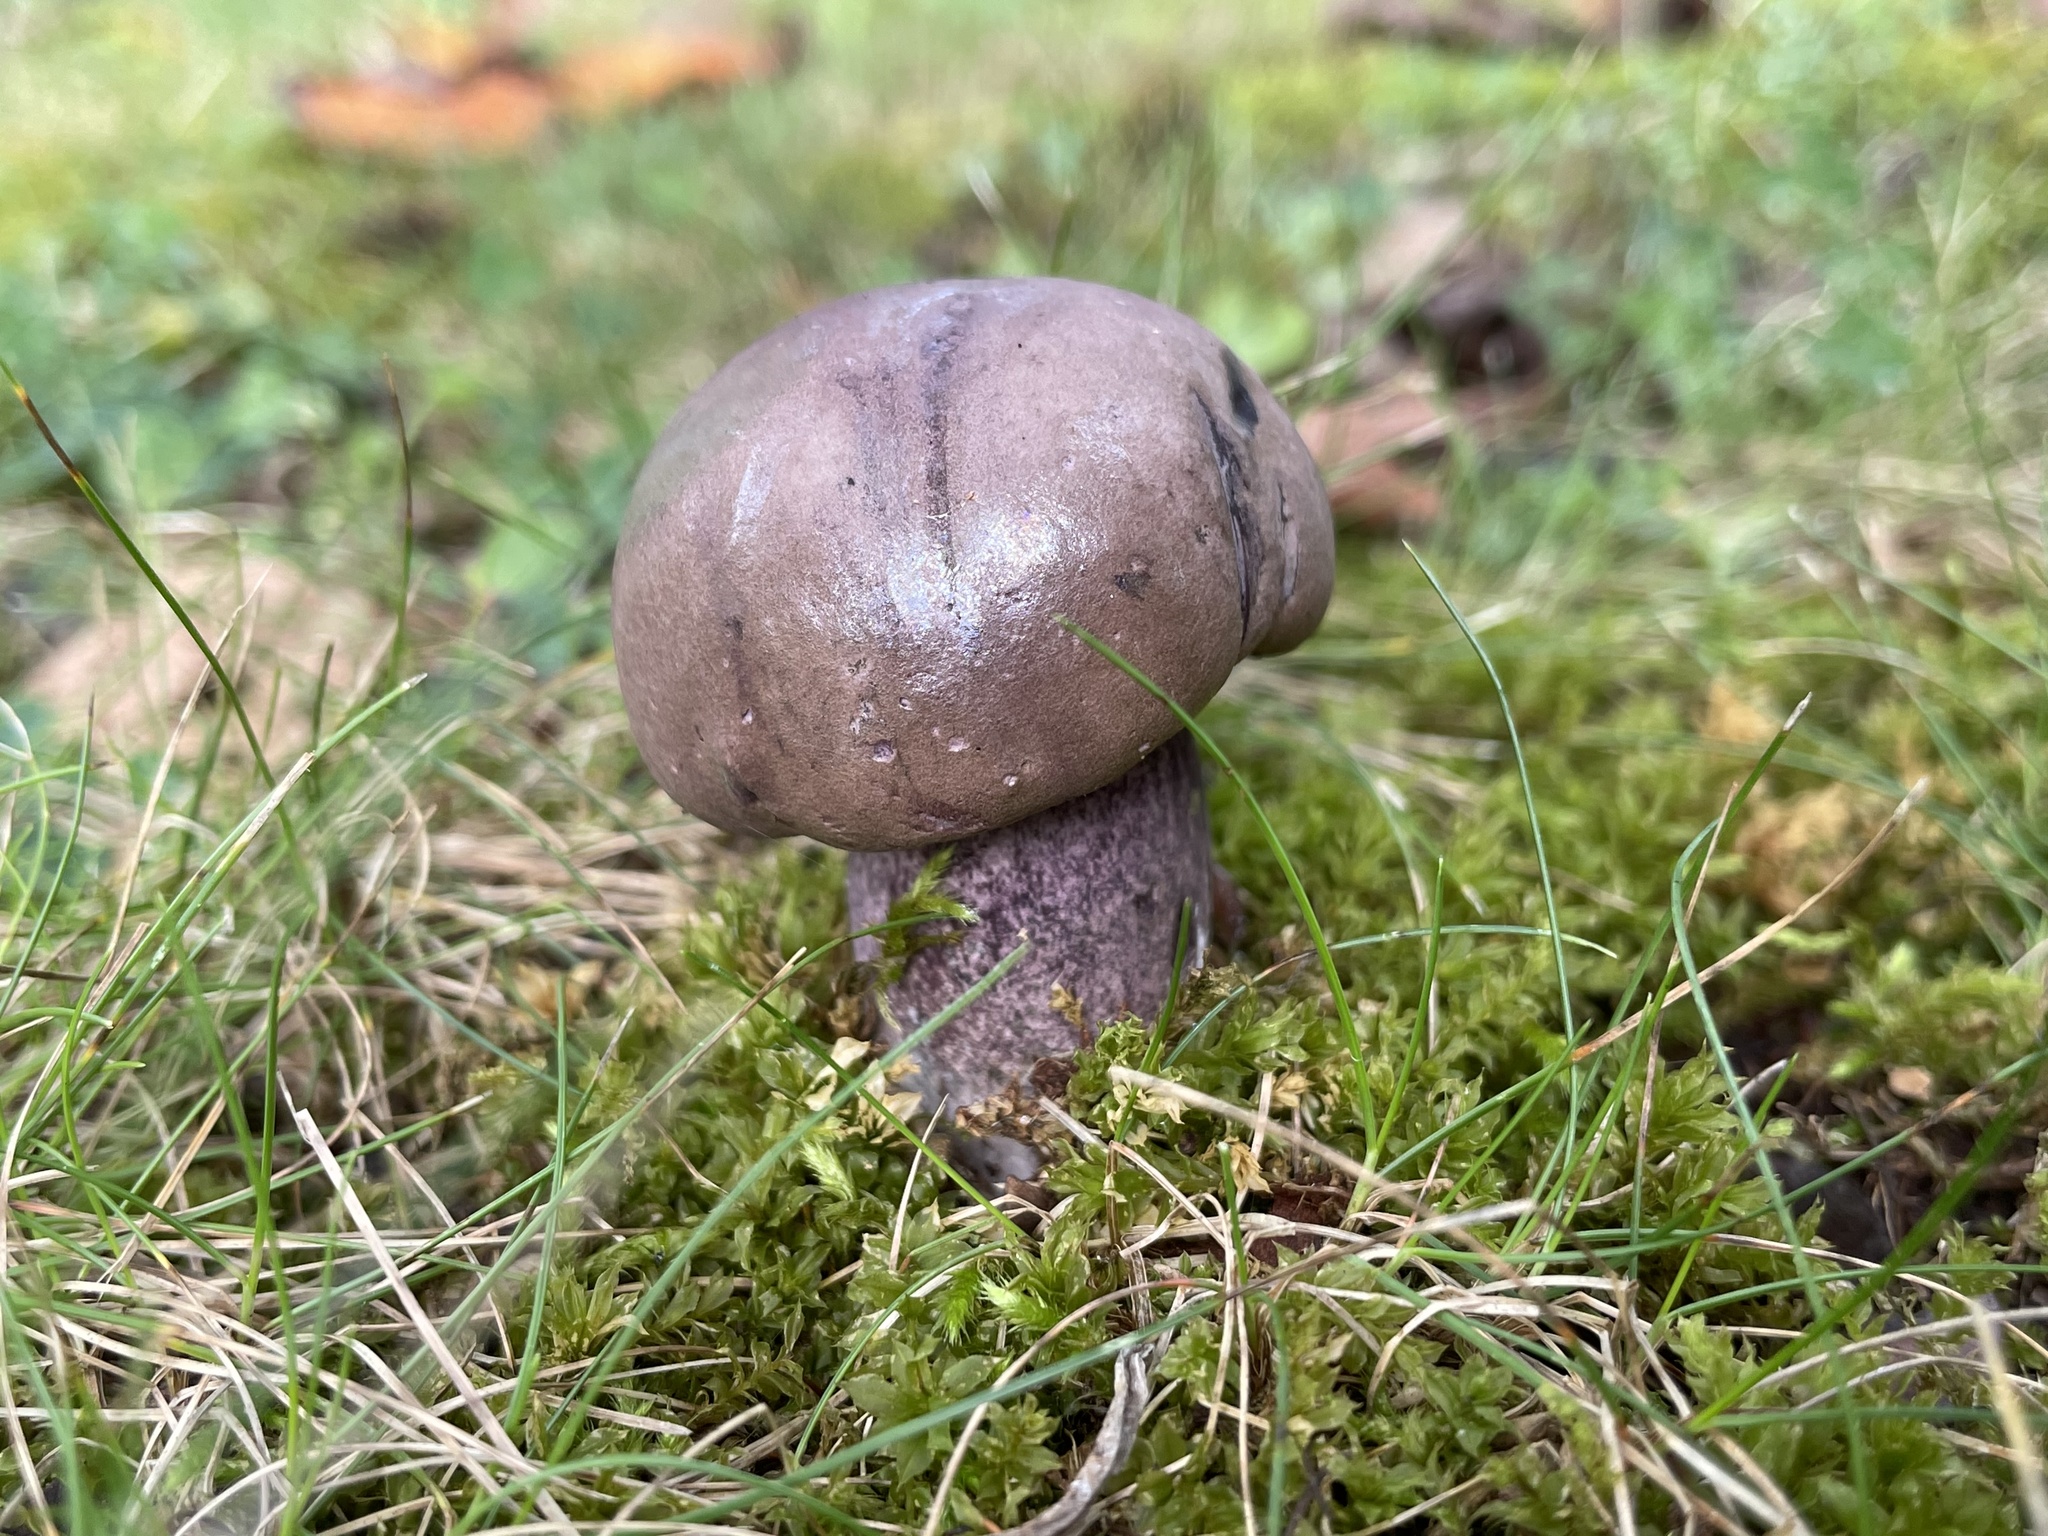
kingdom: Fungi
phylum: Basidiomycota
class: Agaricomycetes
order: Boletales
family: Boletaceae
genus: Tylopilus
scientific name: Tylopilus plumbeoviolaceus
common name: Violet gray bolete
